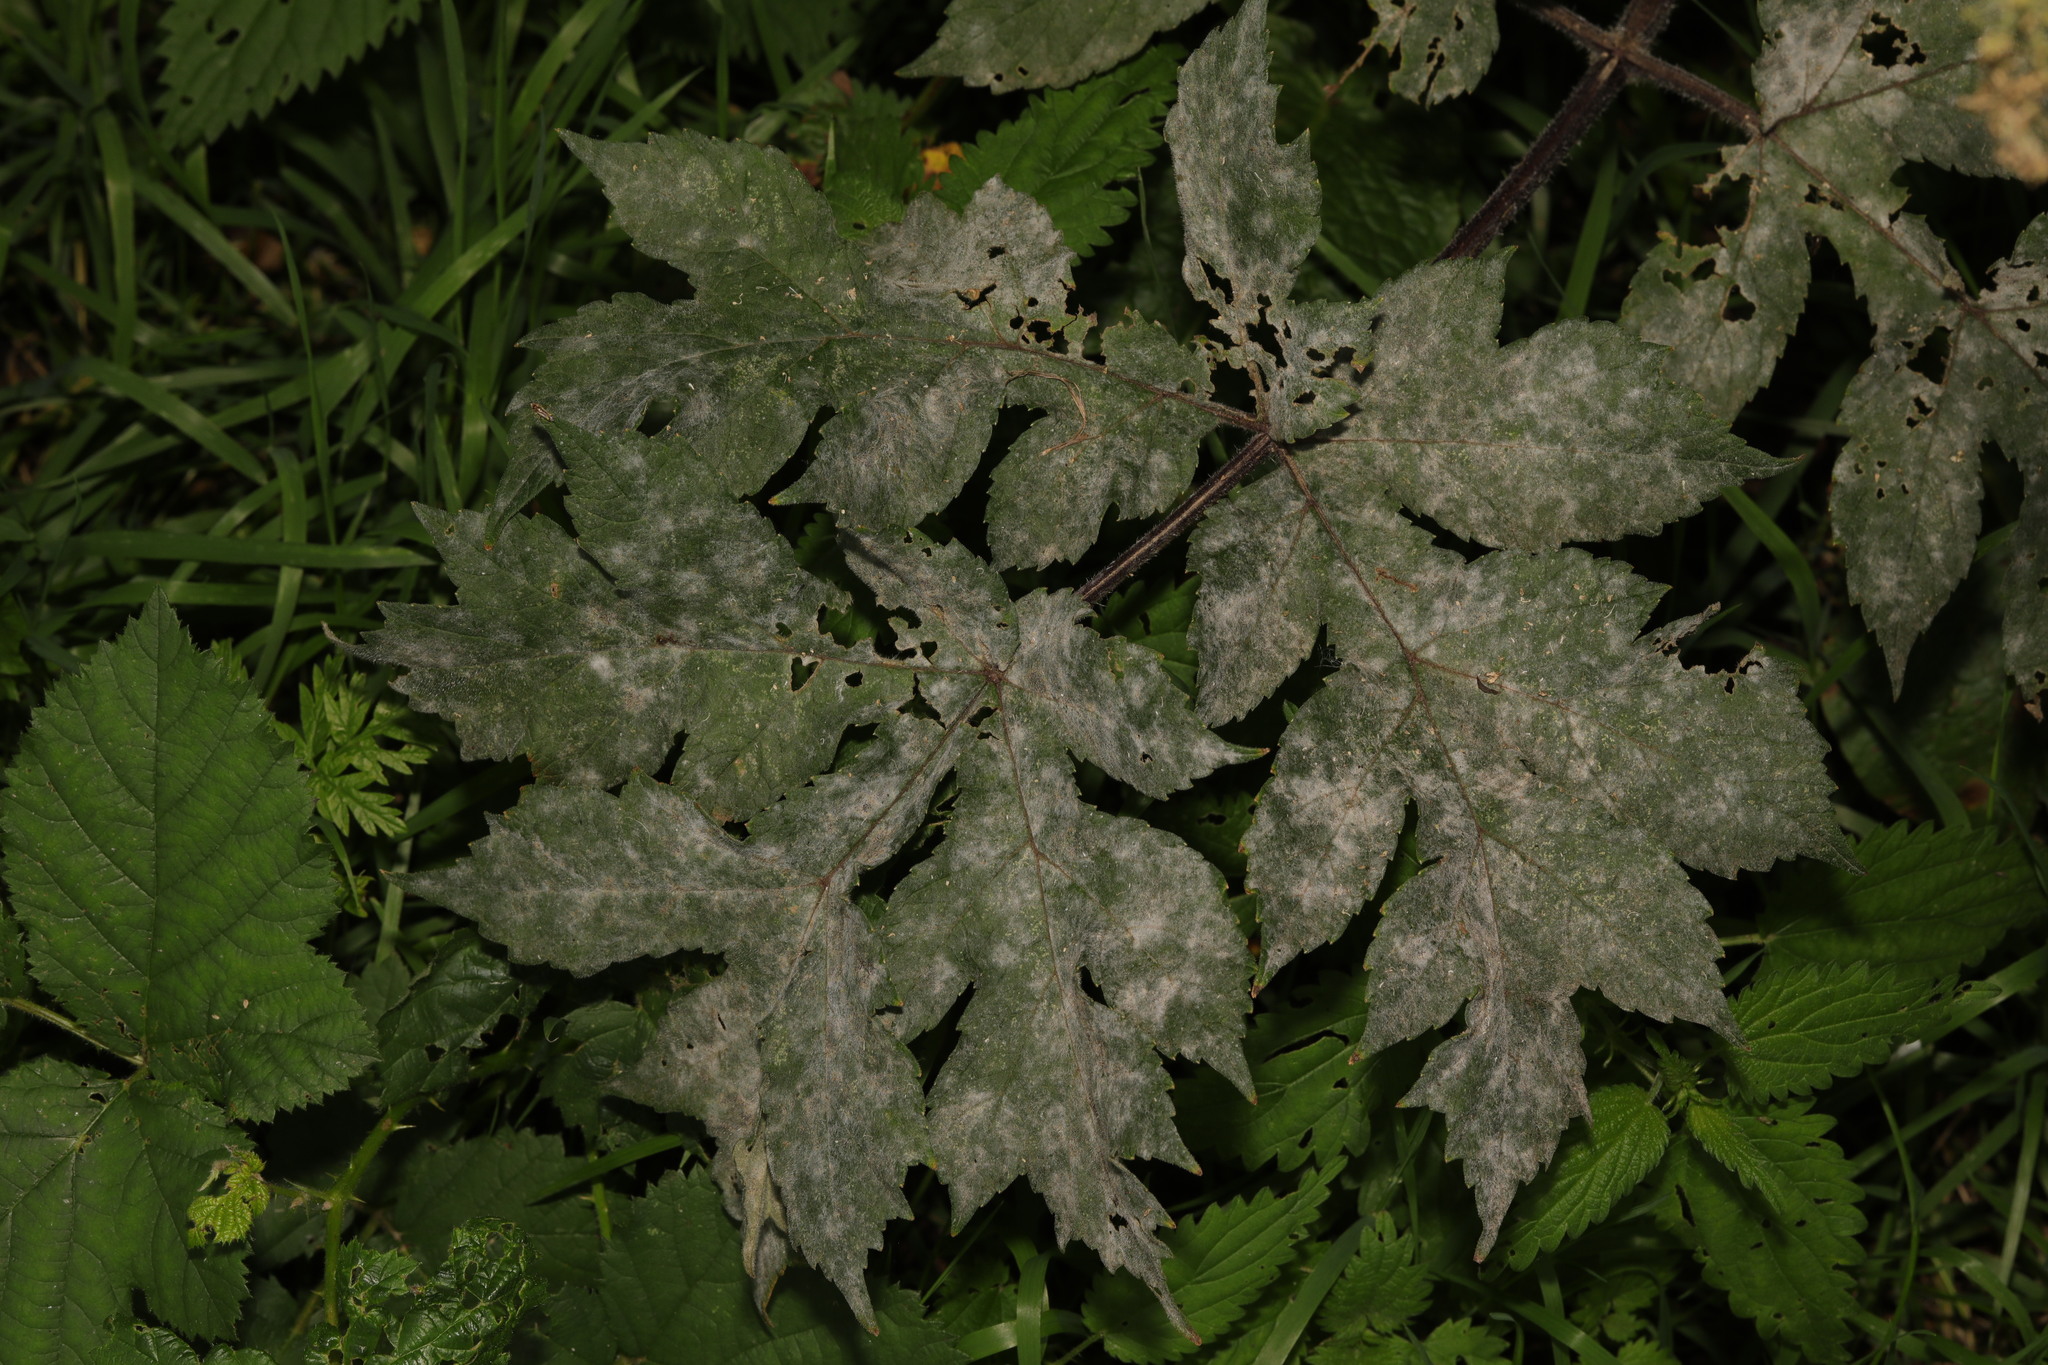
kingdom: Fungi
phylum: Ascomycota
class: Leotiomycetes
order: Helotiales
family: Erysiphaceae
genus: Erysiphe
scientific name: Erysiphe heraclei
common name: Umbellifer mildew
